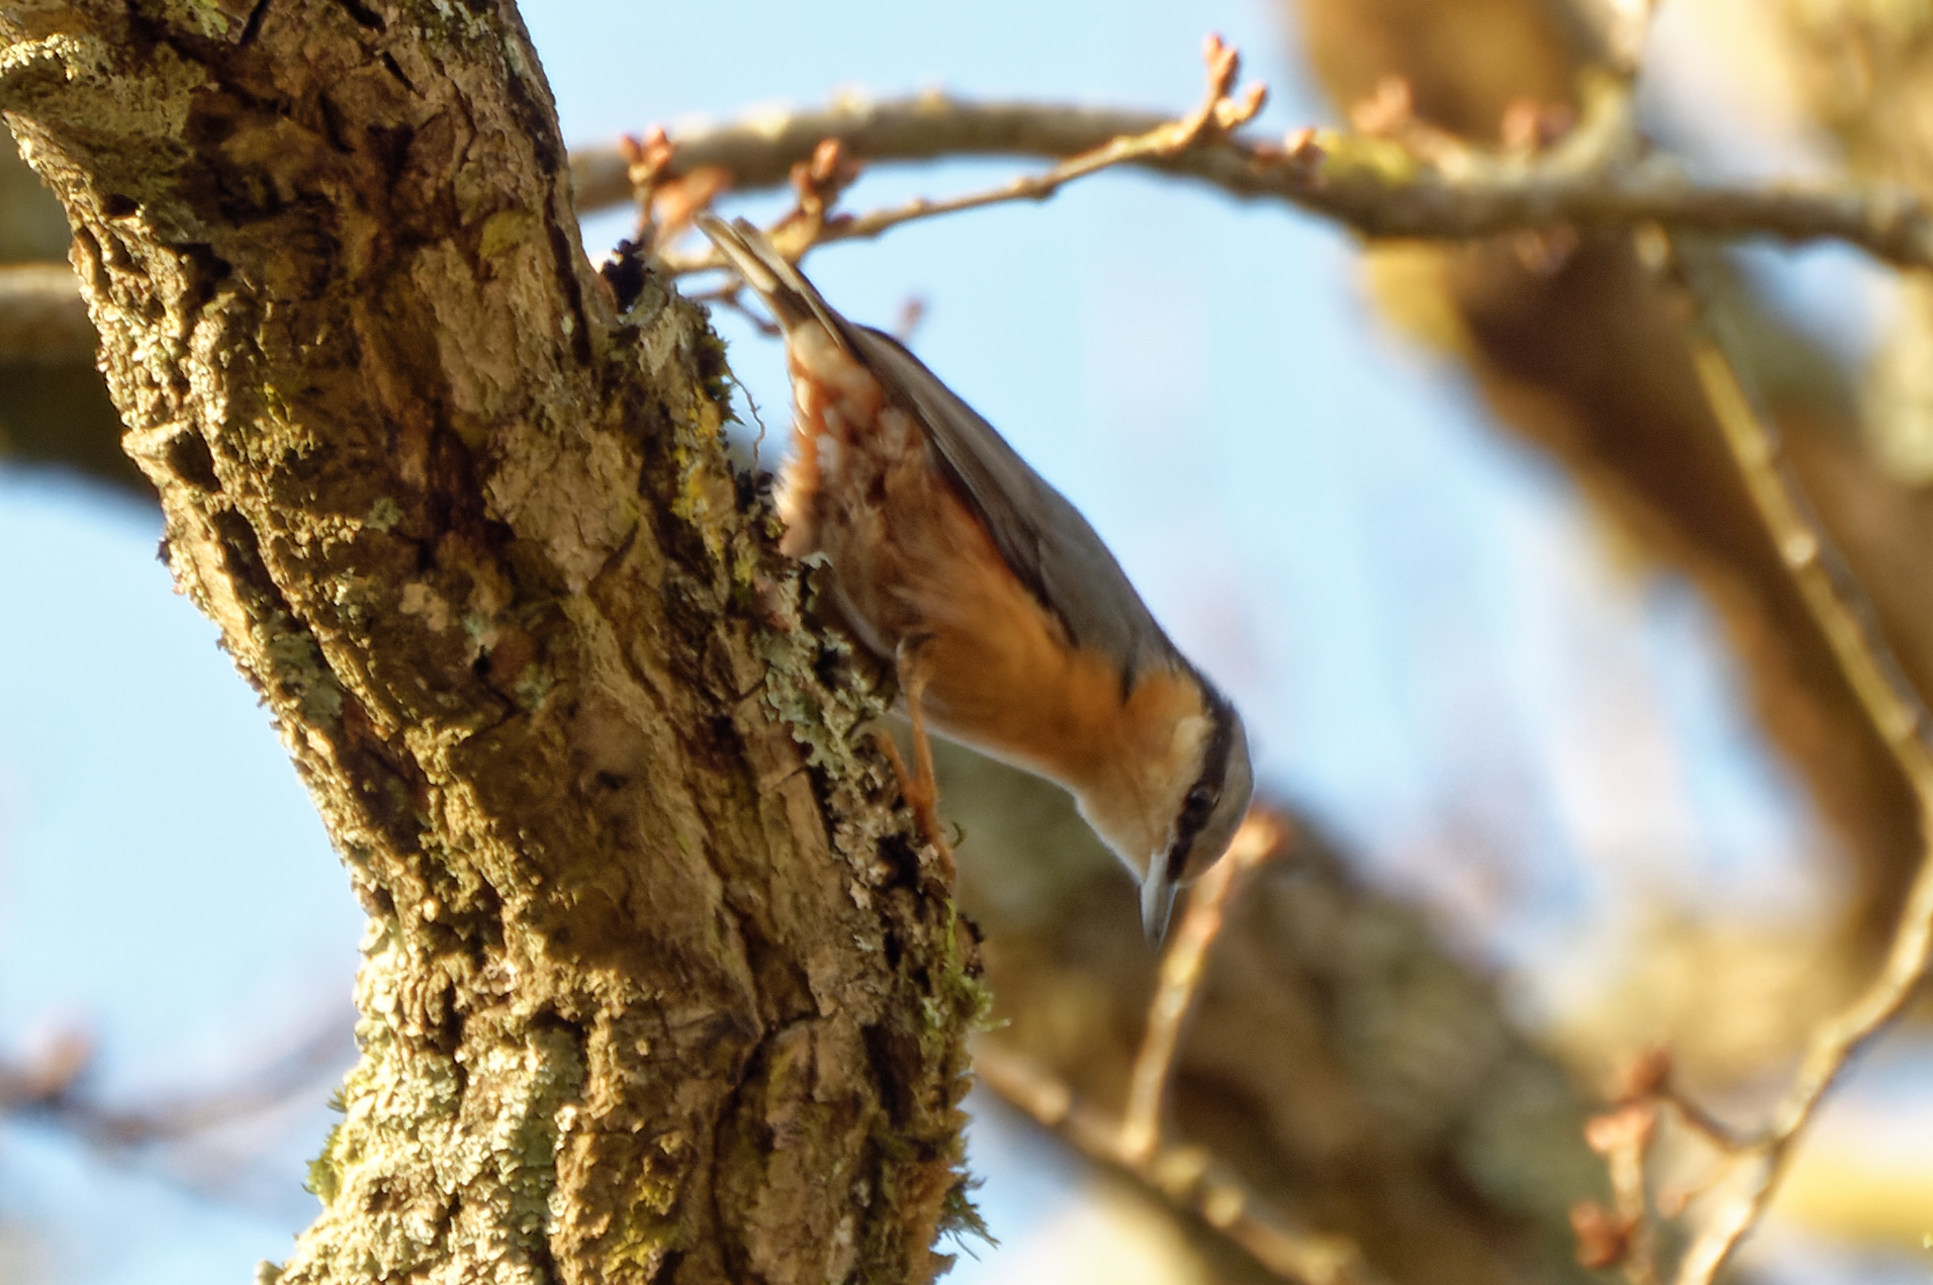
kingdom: Animalia
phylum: Chordata
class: Aves
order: Passeriformes
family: Sittidae
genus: Sitta
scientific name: Sitta europaea
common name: Eurasian nuthatch
